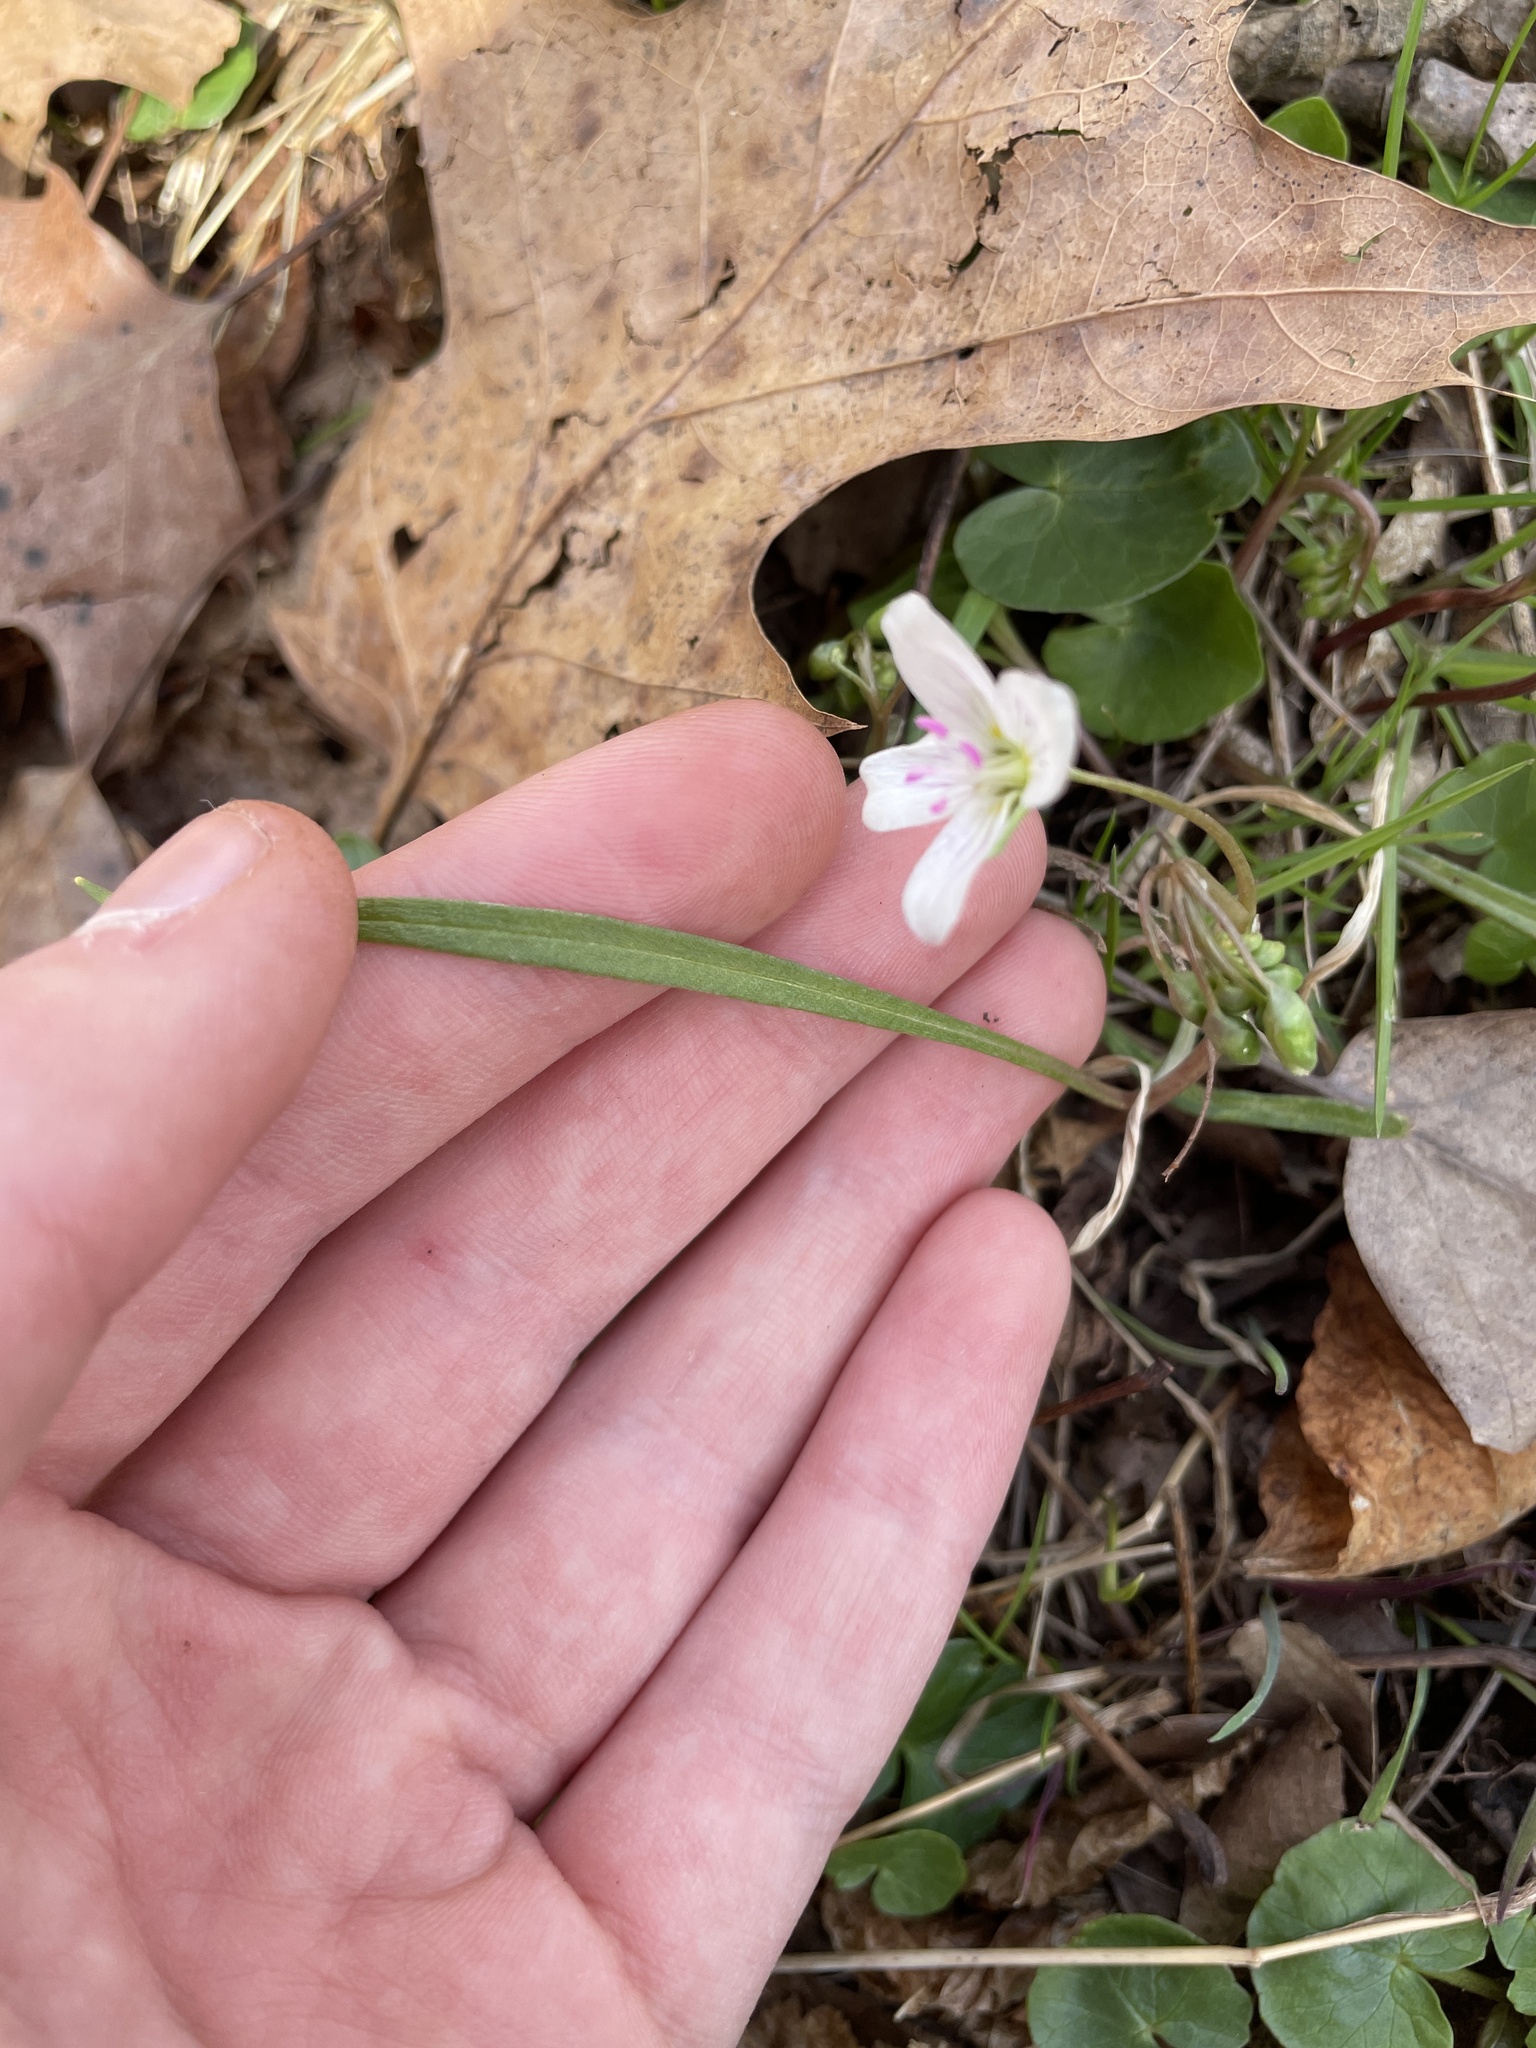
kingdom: Plantae
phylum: Tracheophyta
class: Magnoliopsida
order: Caryophyllales
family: Montiaceae
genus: Claytonia
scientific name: Claytonia virginica
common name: Virginia springbeauty
